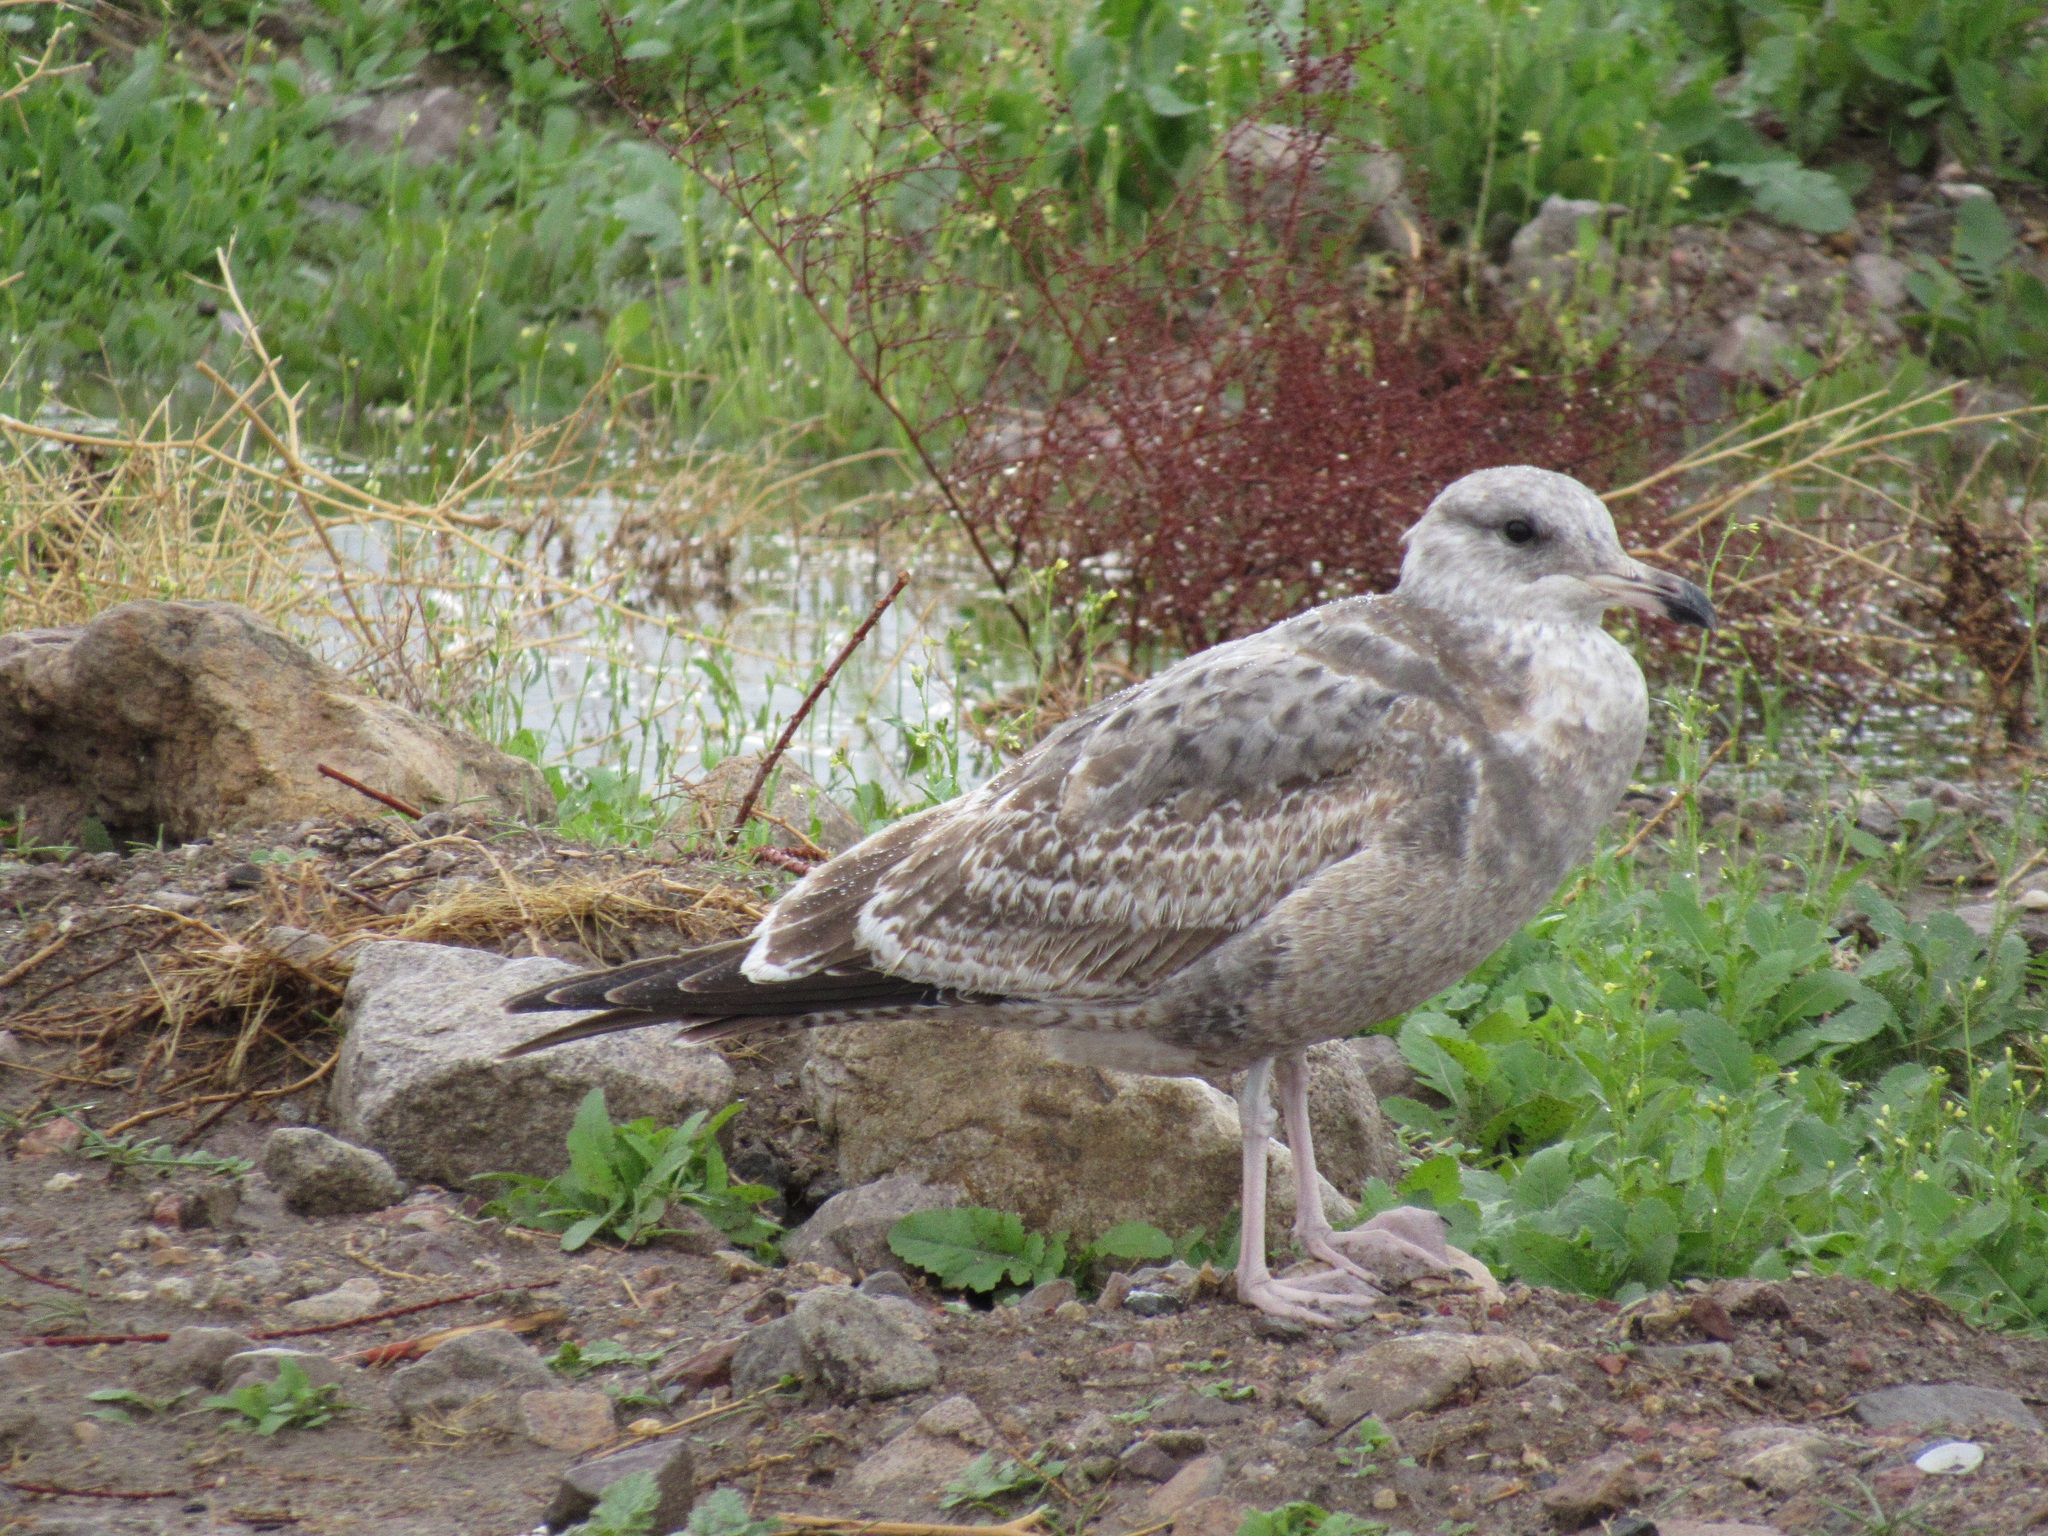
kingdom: Animalia
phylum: Chordata
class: Aves
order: Charadriiformes
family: Laridae
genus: Larus
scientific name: Larus californicus
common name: California gull
